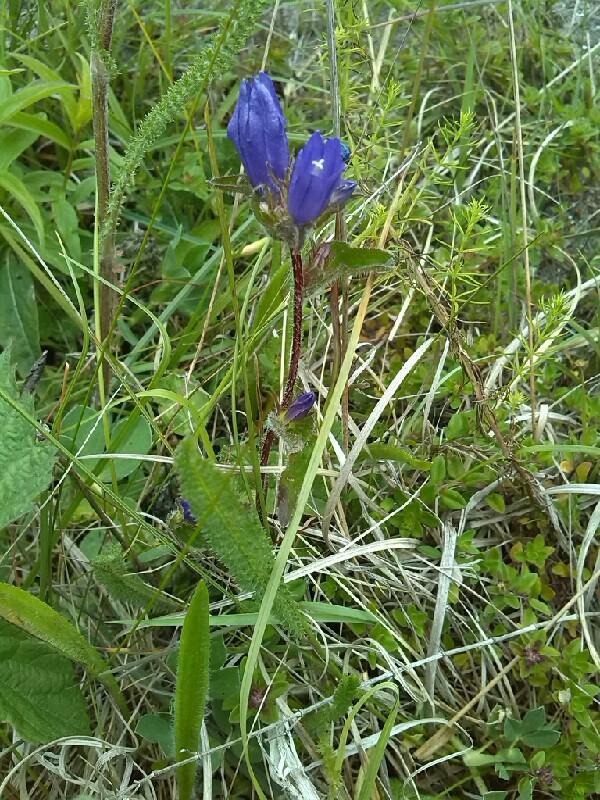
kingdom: Plantae
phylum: Tracheophyta
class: Magnoliopsida
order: Asterales
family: Campanulaceae
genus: Campanula
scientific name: Campanula glomerata
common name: Clustered bellflower
